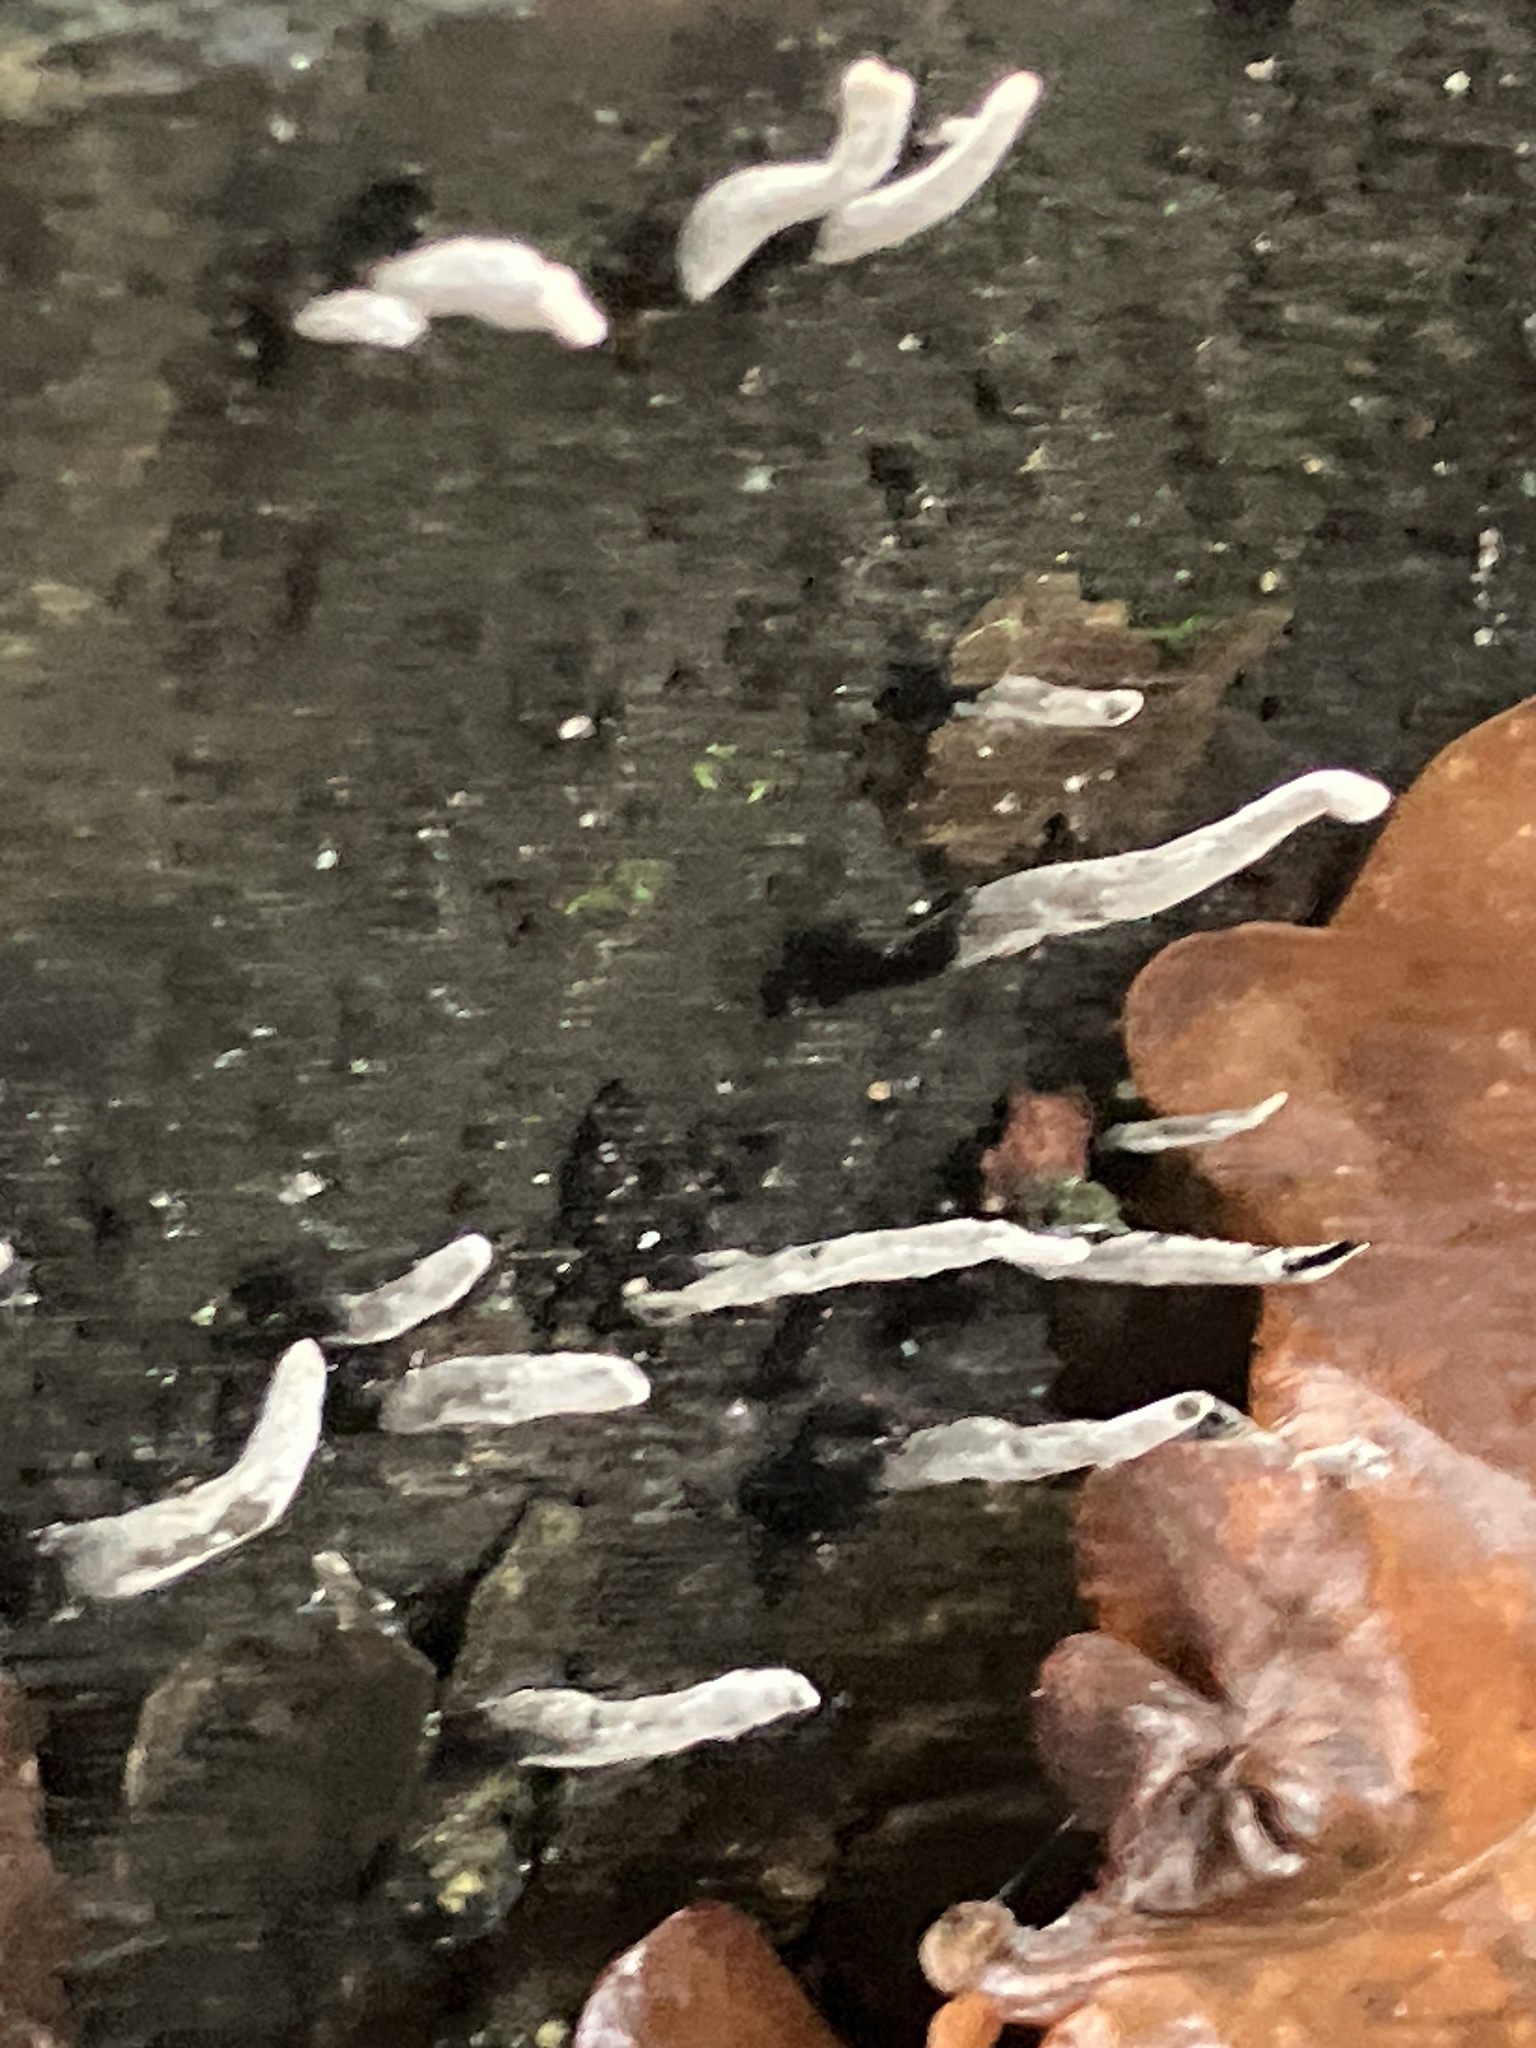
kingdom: Fungi
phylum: Ascomycota
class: Sordariomycetes
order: Xylariales
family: Xylariaceae
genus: Xylaria
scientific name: Xylaria hypoxylon
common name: Candle-snuff fungus
